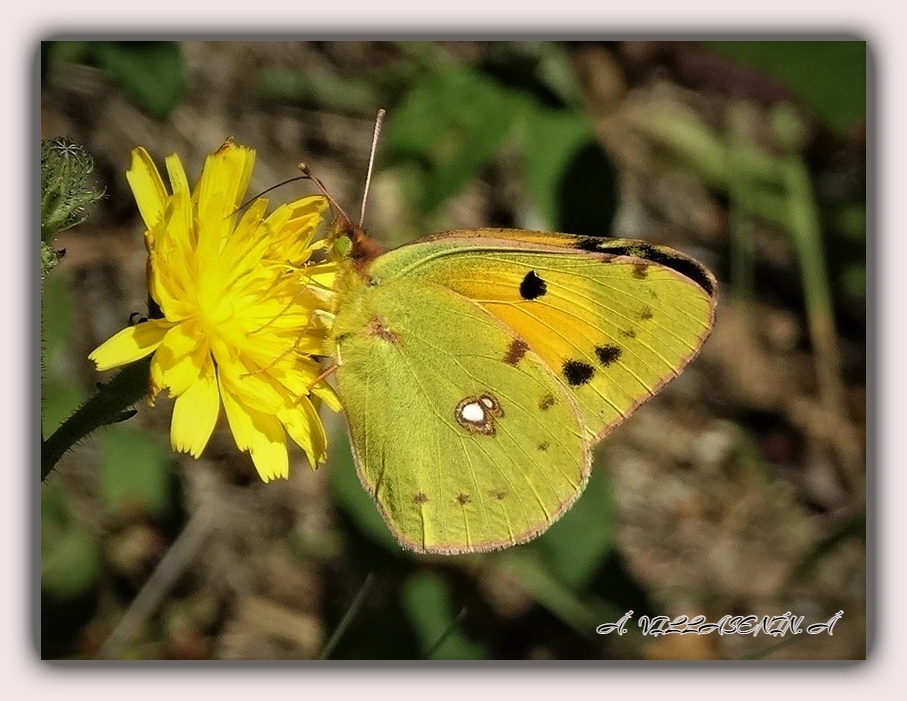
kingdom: Animalia
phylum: Arthropoda
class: Insecta
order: Lepidoptera
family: Pieridae
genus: Colias
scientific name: Colias croceus
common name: Clouded yellow
